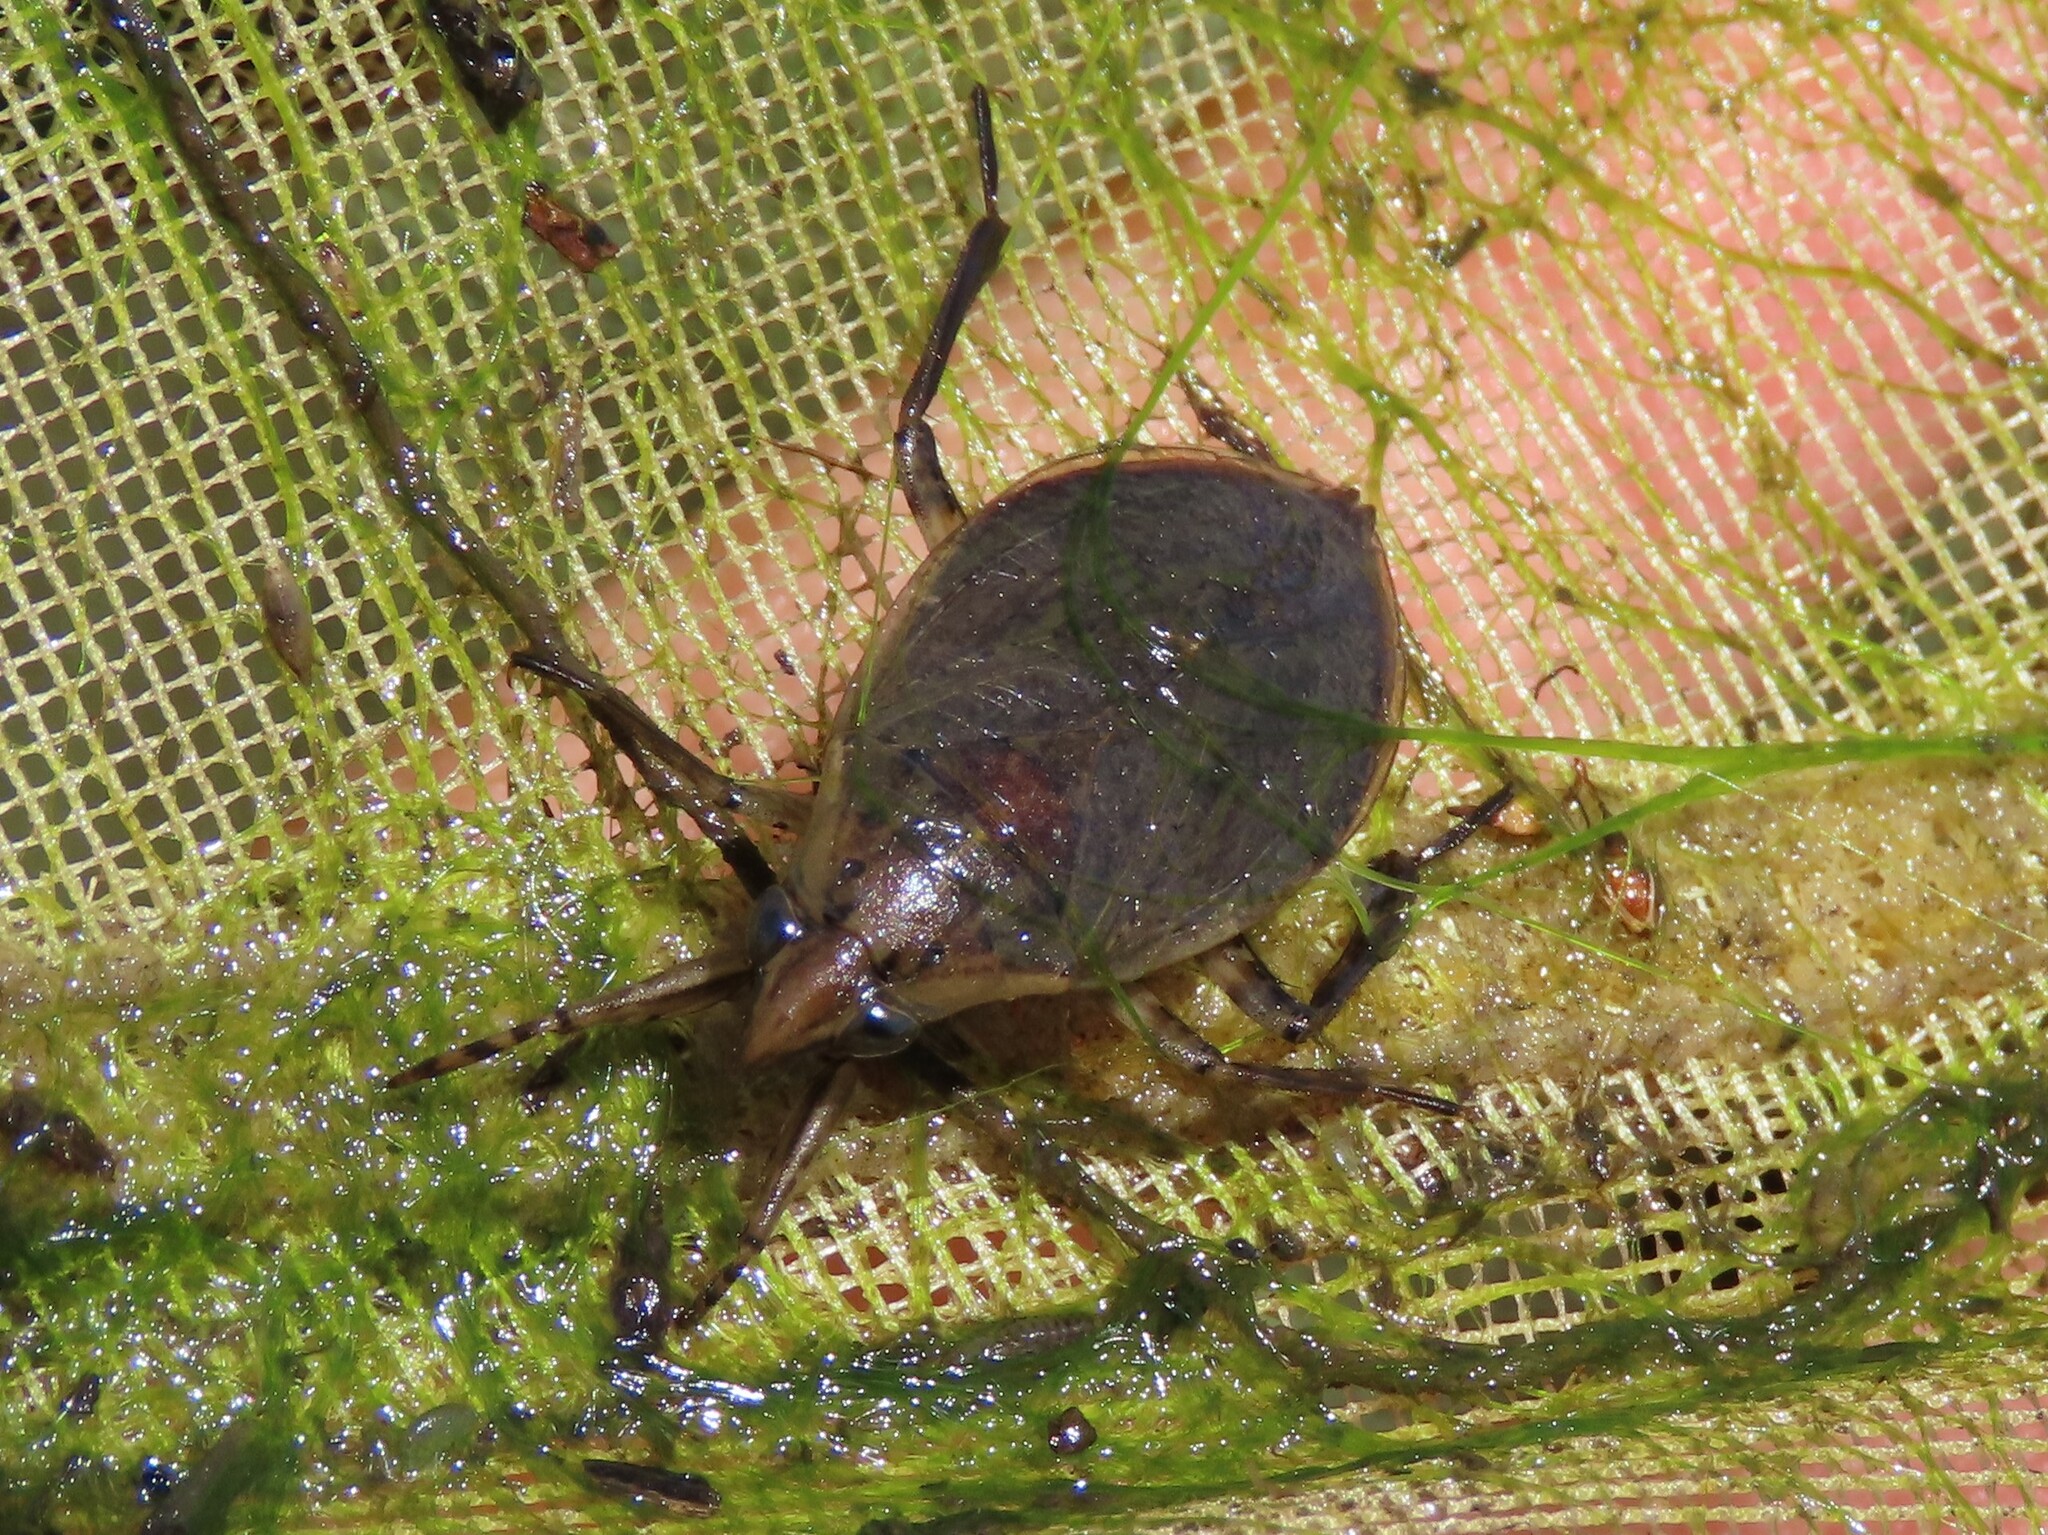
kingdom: Animalia
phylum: Arthropoda
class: Insecta
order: Hemiptera
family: Belostomatidae
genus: Belostoma
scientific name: Belostoma lutarium
